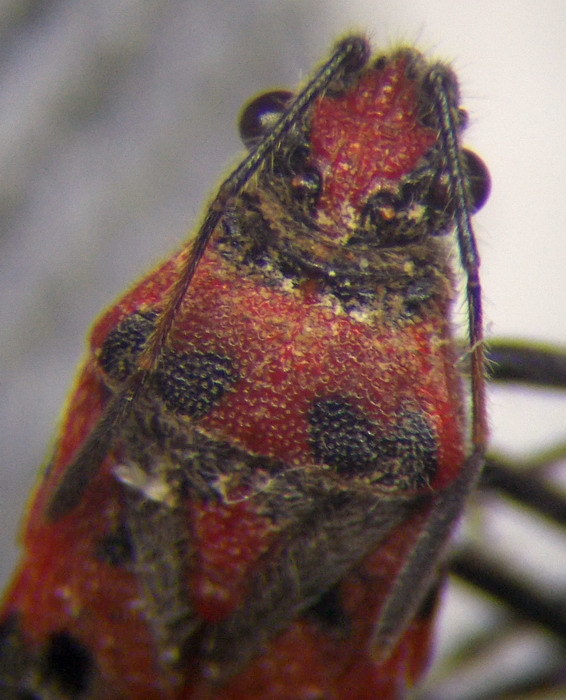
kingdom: Animalia
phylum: Arthropoda
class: Insecta
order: Hemiptera
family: Rhopalidae
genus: Corizus
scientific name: Corizus hyoscyami
